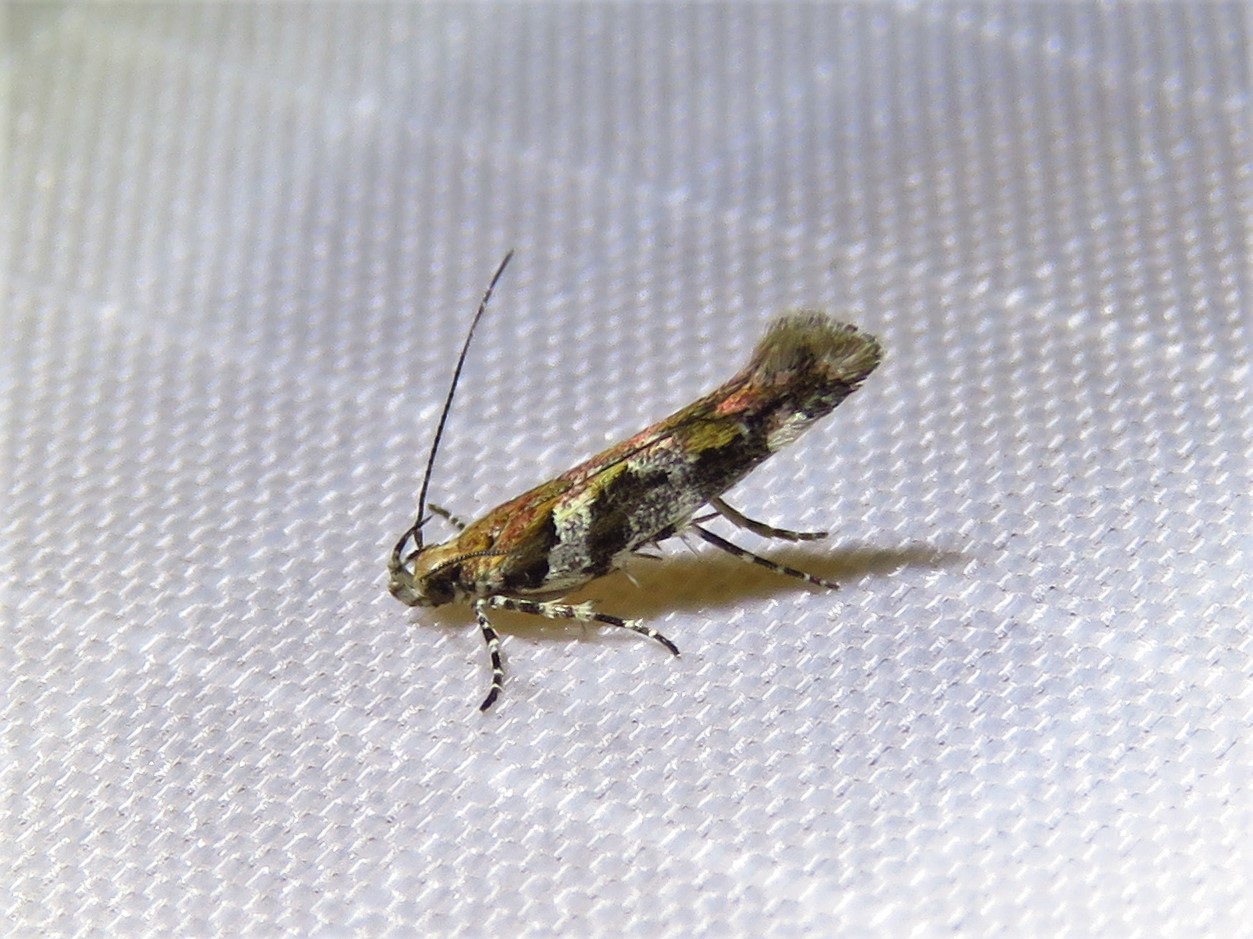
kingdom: Animalia
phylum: Arthropoda
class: Insecta
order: Lepidoptera
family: Gelechiidae
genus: Aristotelia
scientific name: Aristotelia roseosuffusella
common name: Pink-washed aristotelia moth
